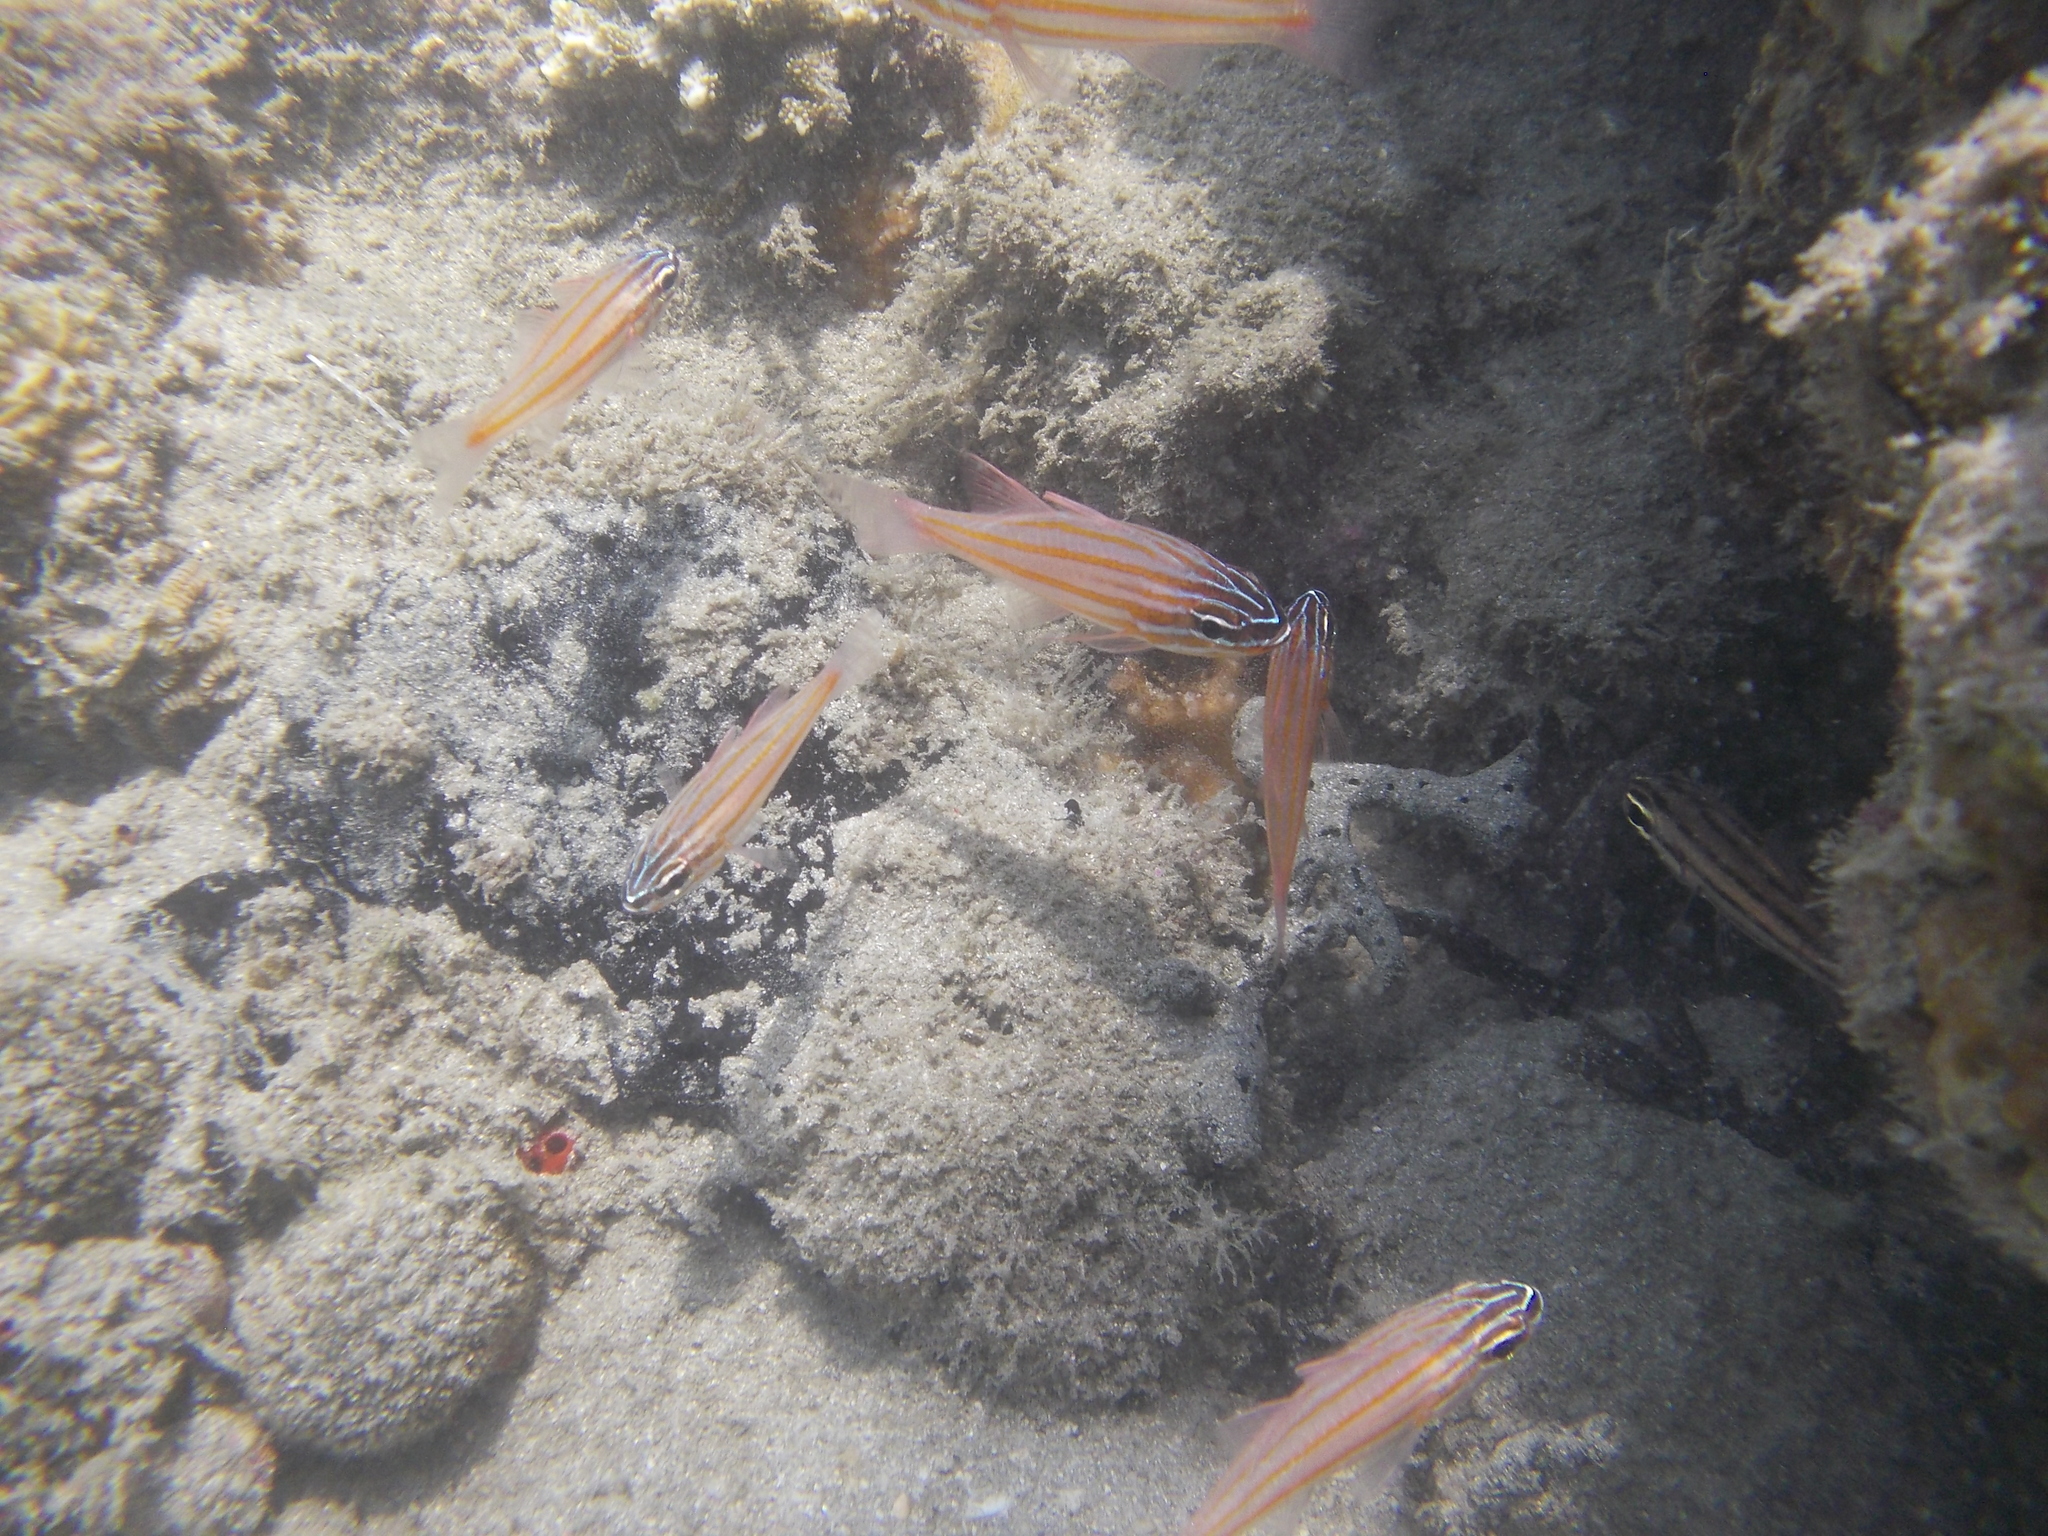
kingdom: Animalia
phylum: Chordata
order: Perciformes
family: Apogonidae
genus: Ostorhinchus
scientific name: Ostorhinchus properuptus
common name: Coral cardinalfish
